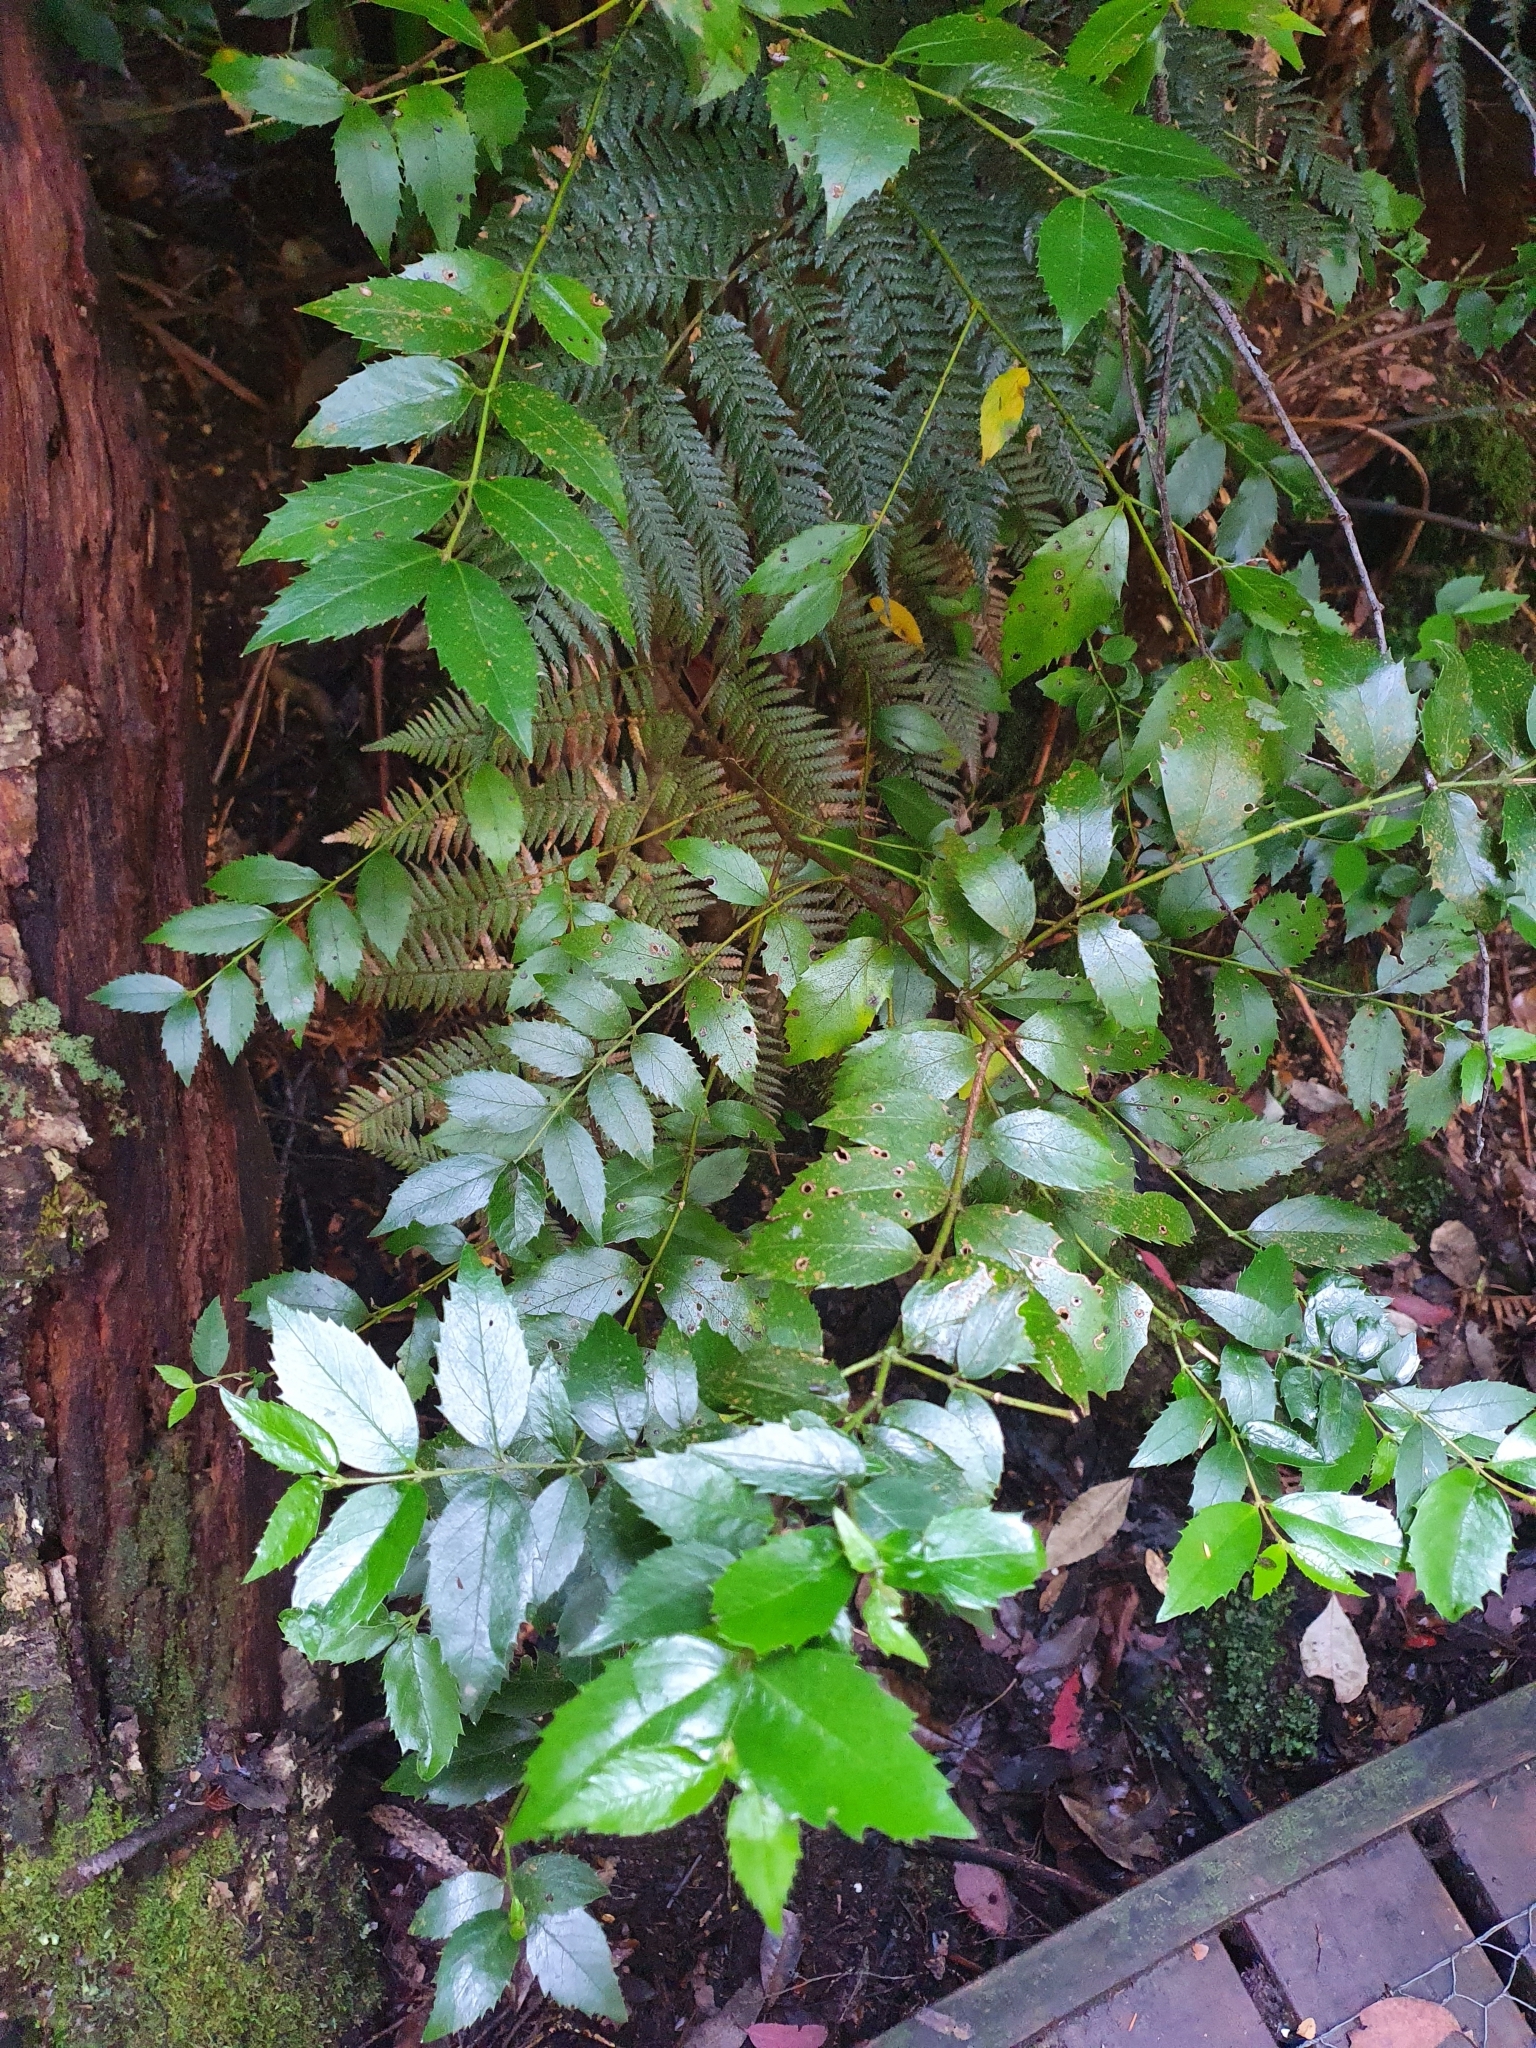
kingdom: Plantae
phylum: Tracheophyta
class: Magnoliopsida
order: Laurales
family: Atherospermataceae
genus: Atherosperma
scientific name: Atherosperma moschatum
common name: Tasmanian-sassafras
